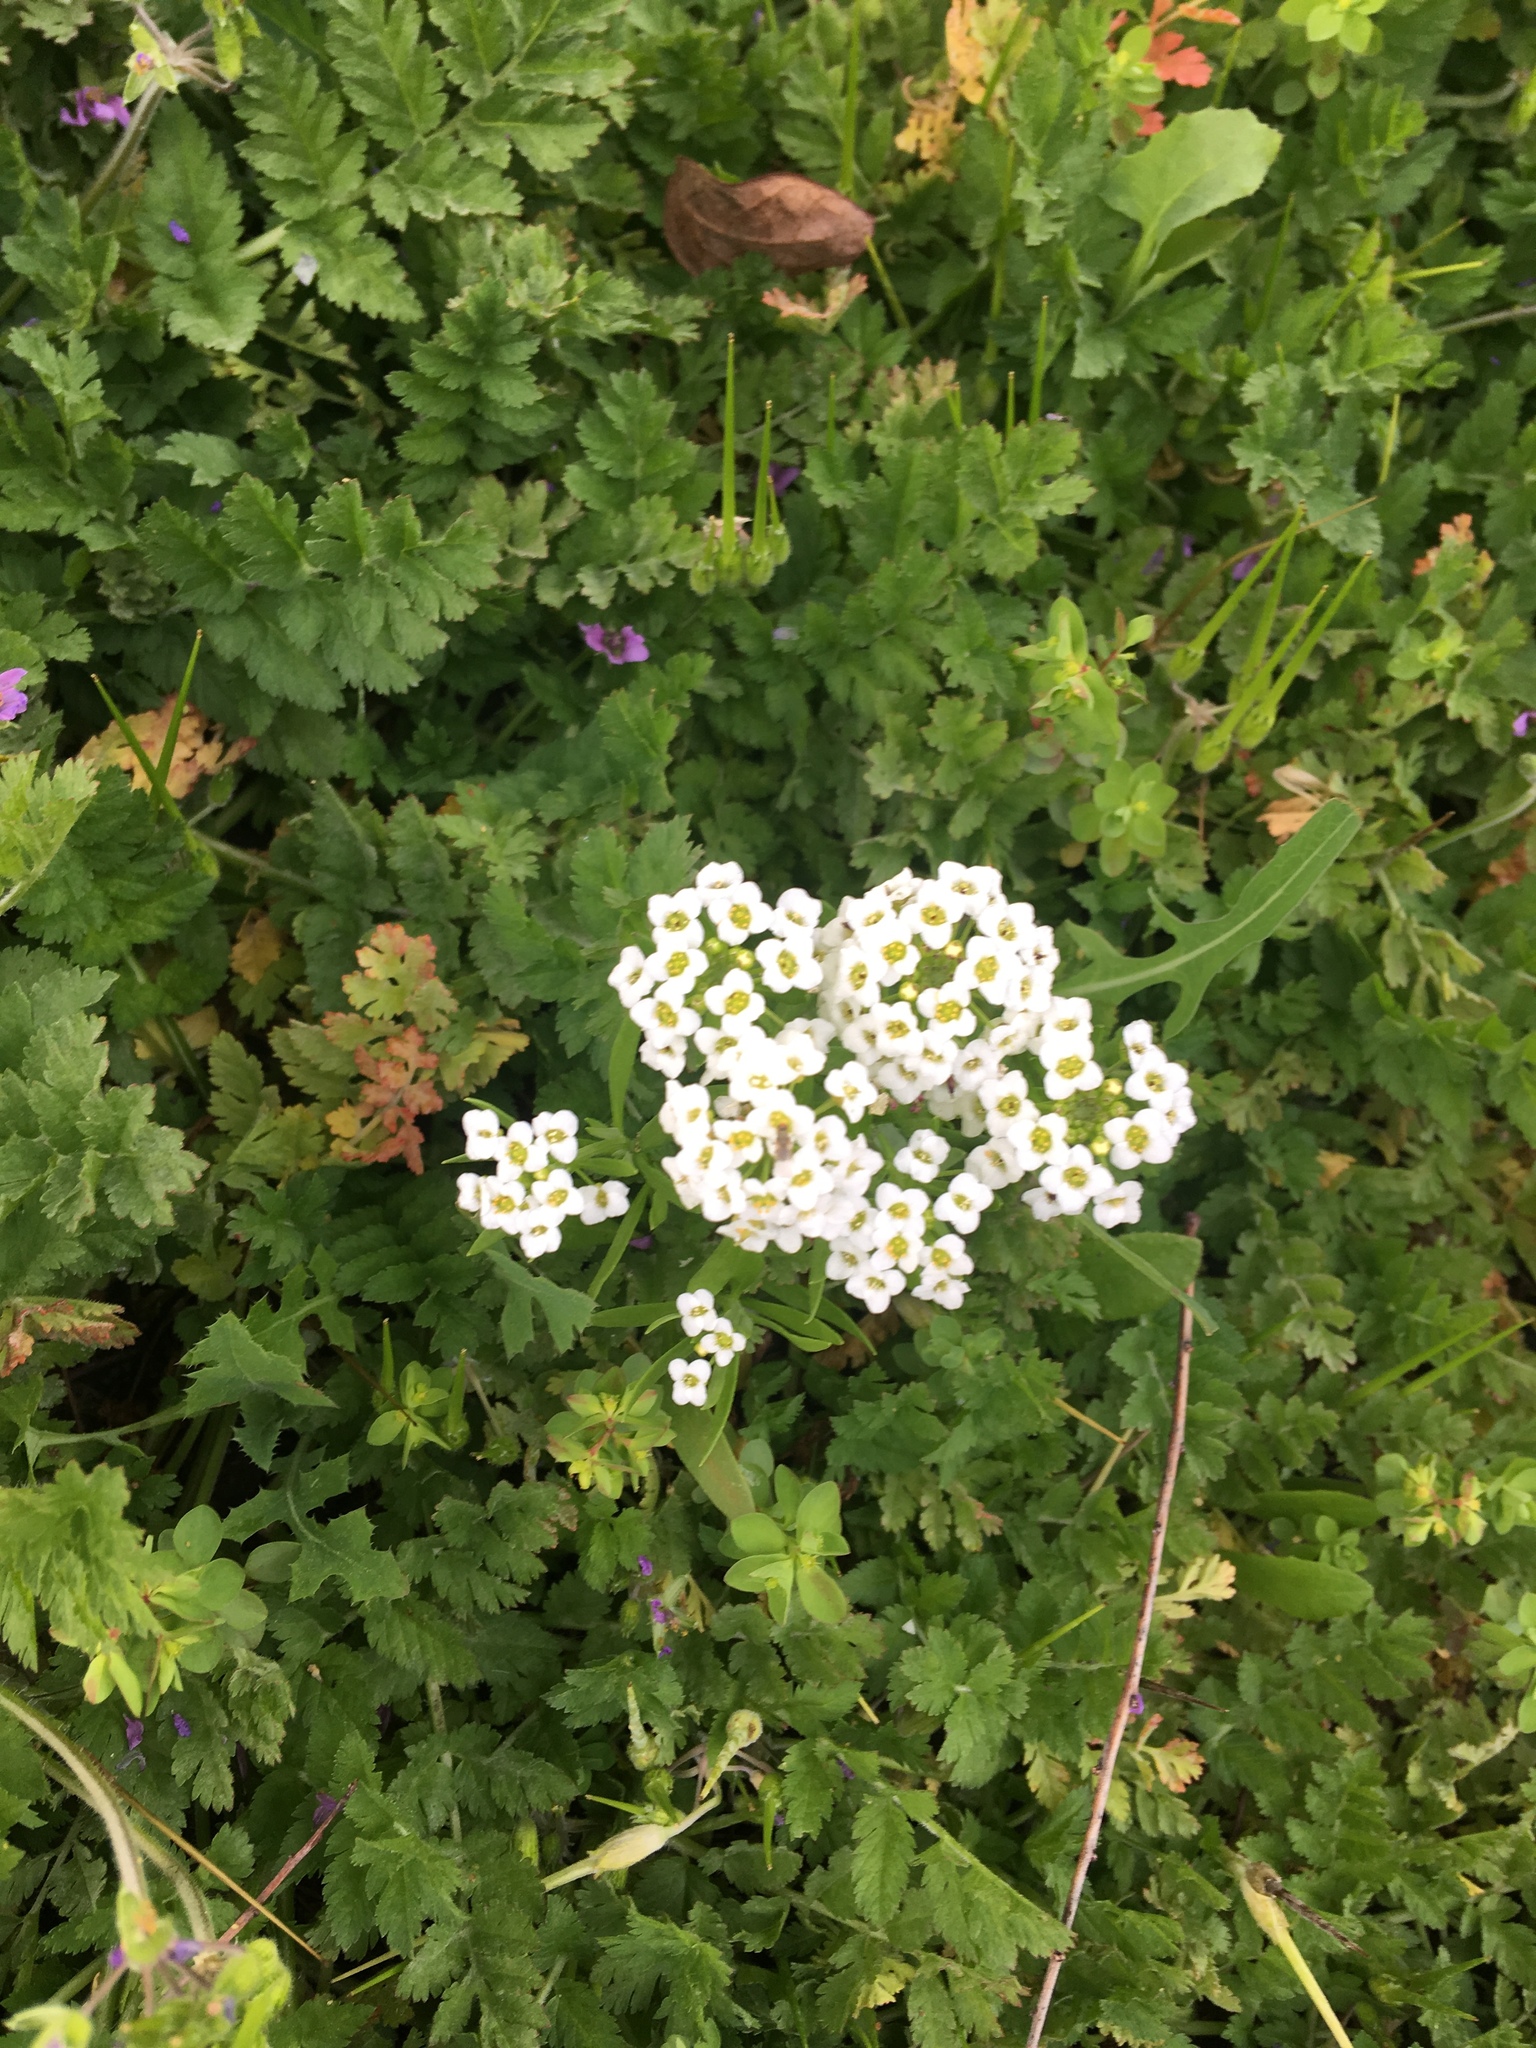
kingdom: Plantae
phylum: Tracheophyta
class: Magnoliopsida
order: Brassicales
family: Brassicaceae
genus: Lobularia
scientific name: Lobularia maritima
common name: Sweet alison
